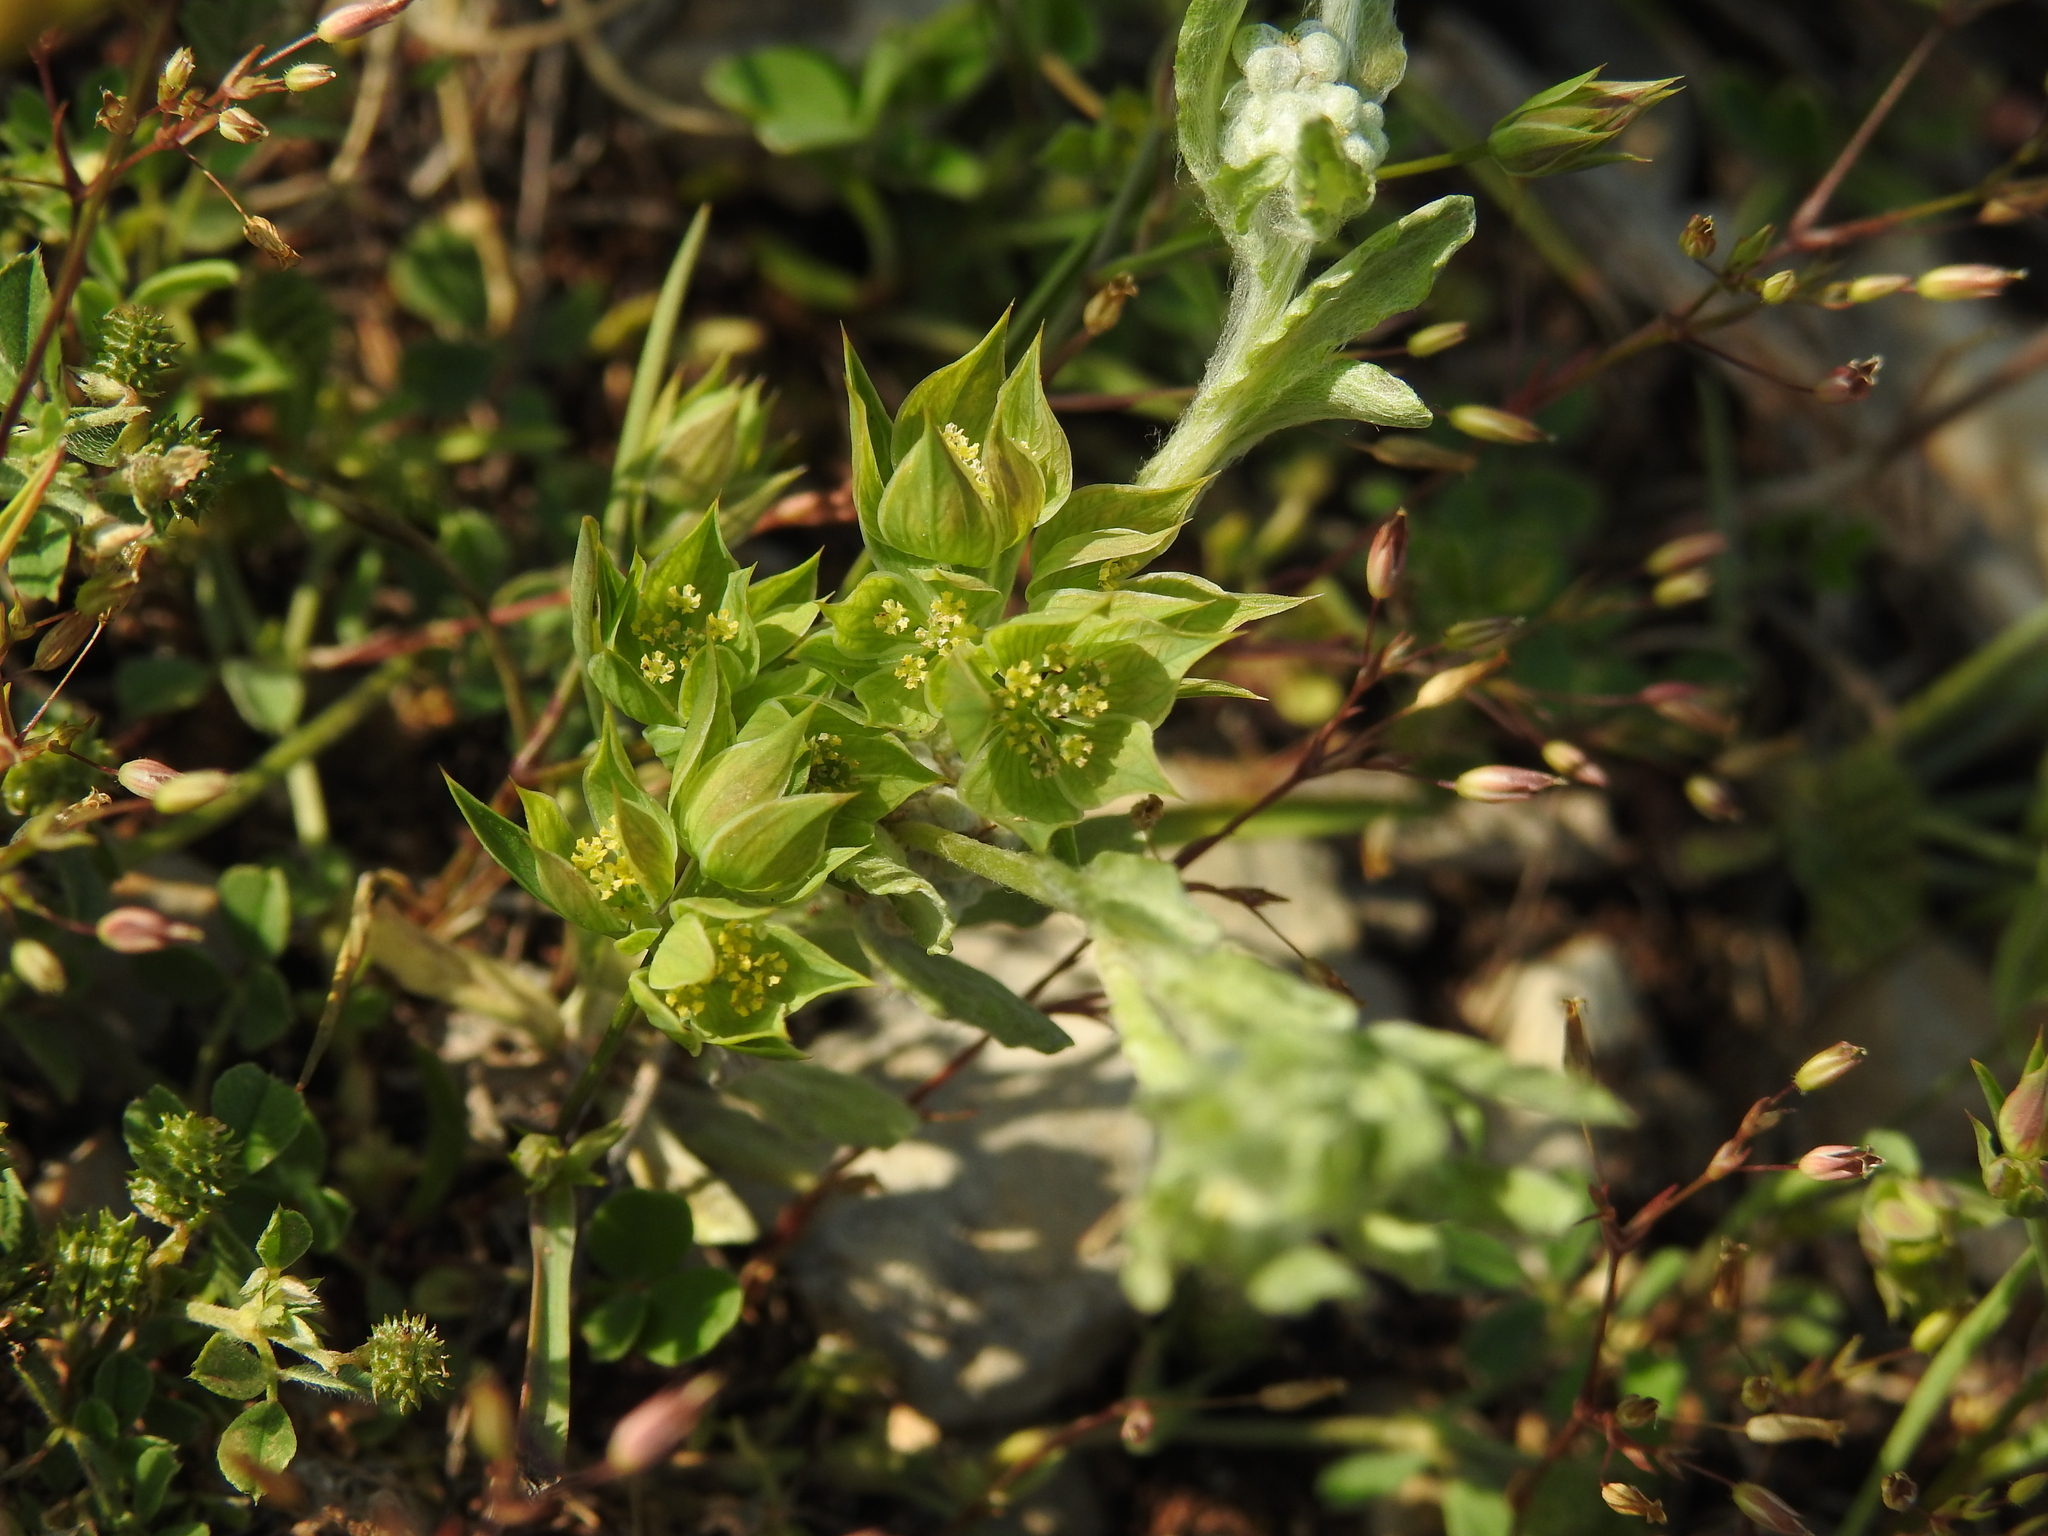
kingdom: Plantae
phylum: Tracheophyta
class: Magnoliopsida
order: Apiales
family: Apiaceae
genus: Bupleurum
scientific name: Bupleurum baldense
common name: Small hare's-ear
